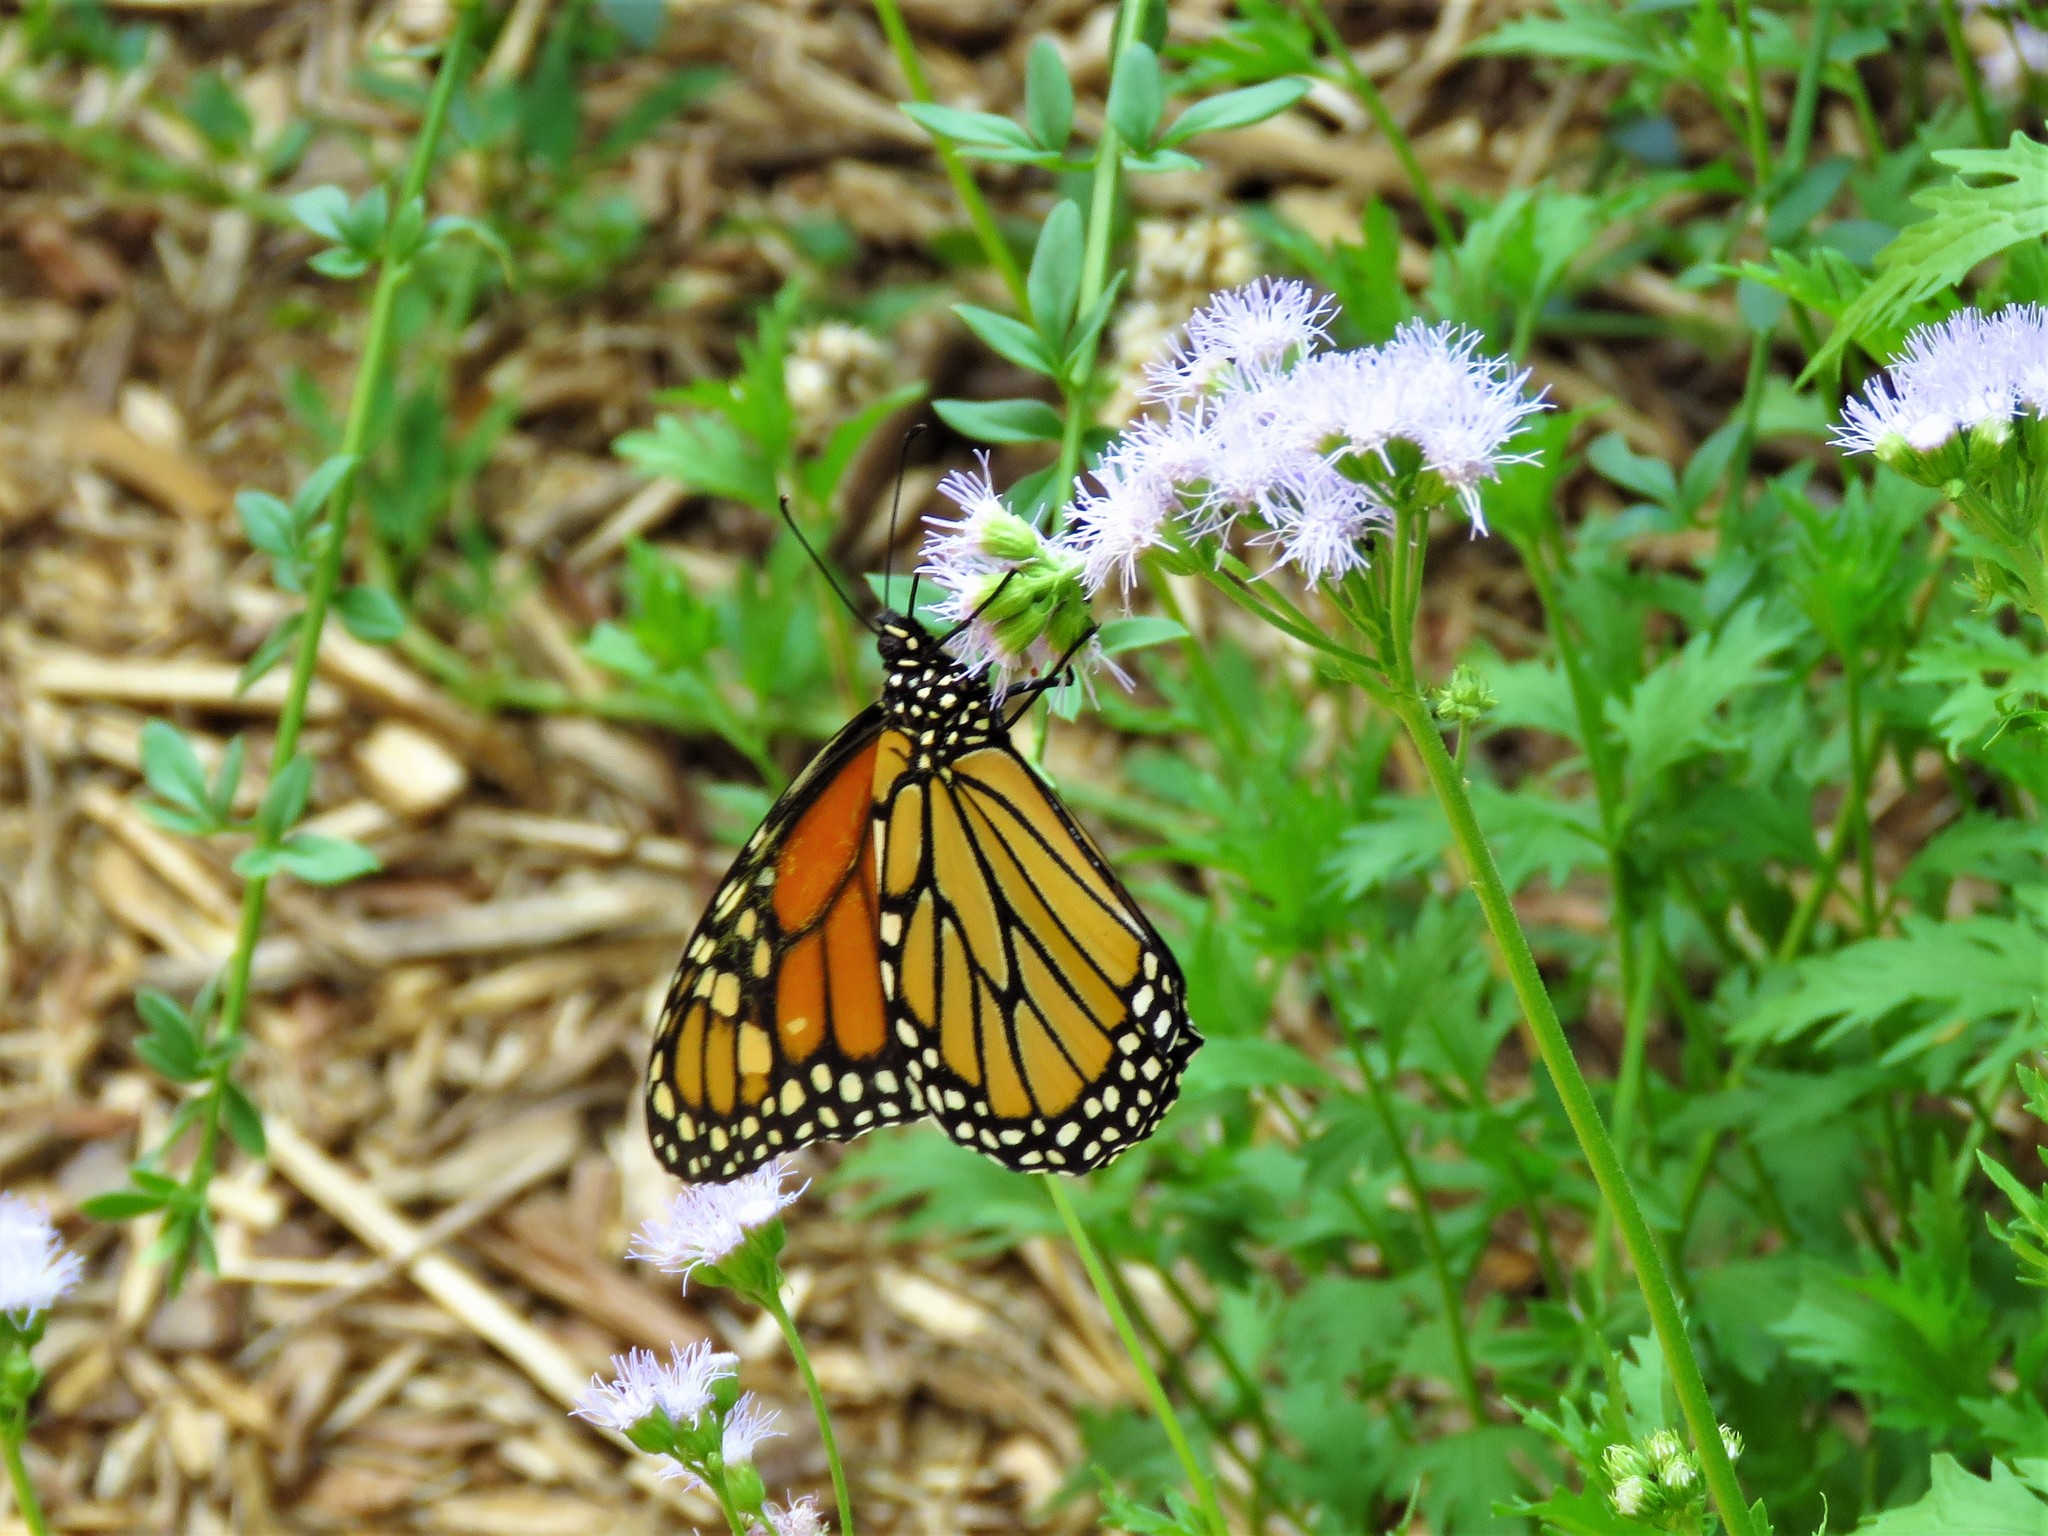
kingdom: Animalia
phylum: Arthropoda
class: Insecta
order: Lepidoptera
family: Nymphalidae
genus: Danaus
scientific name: Danaus plexippus
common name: Monarch
